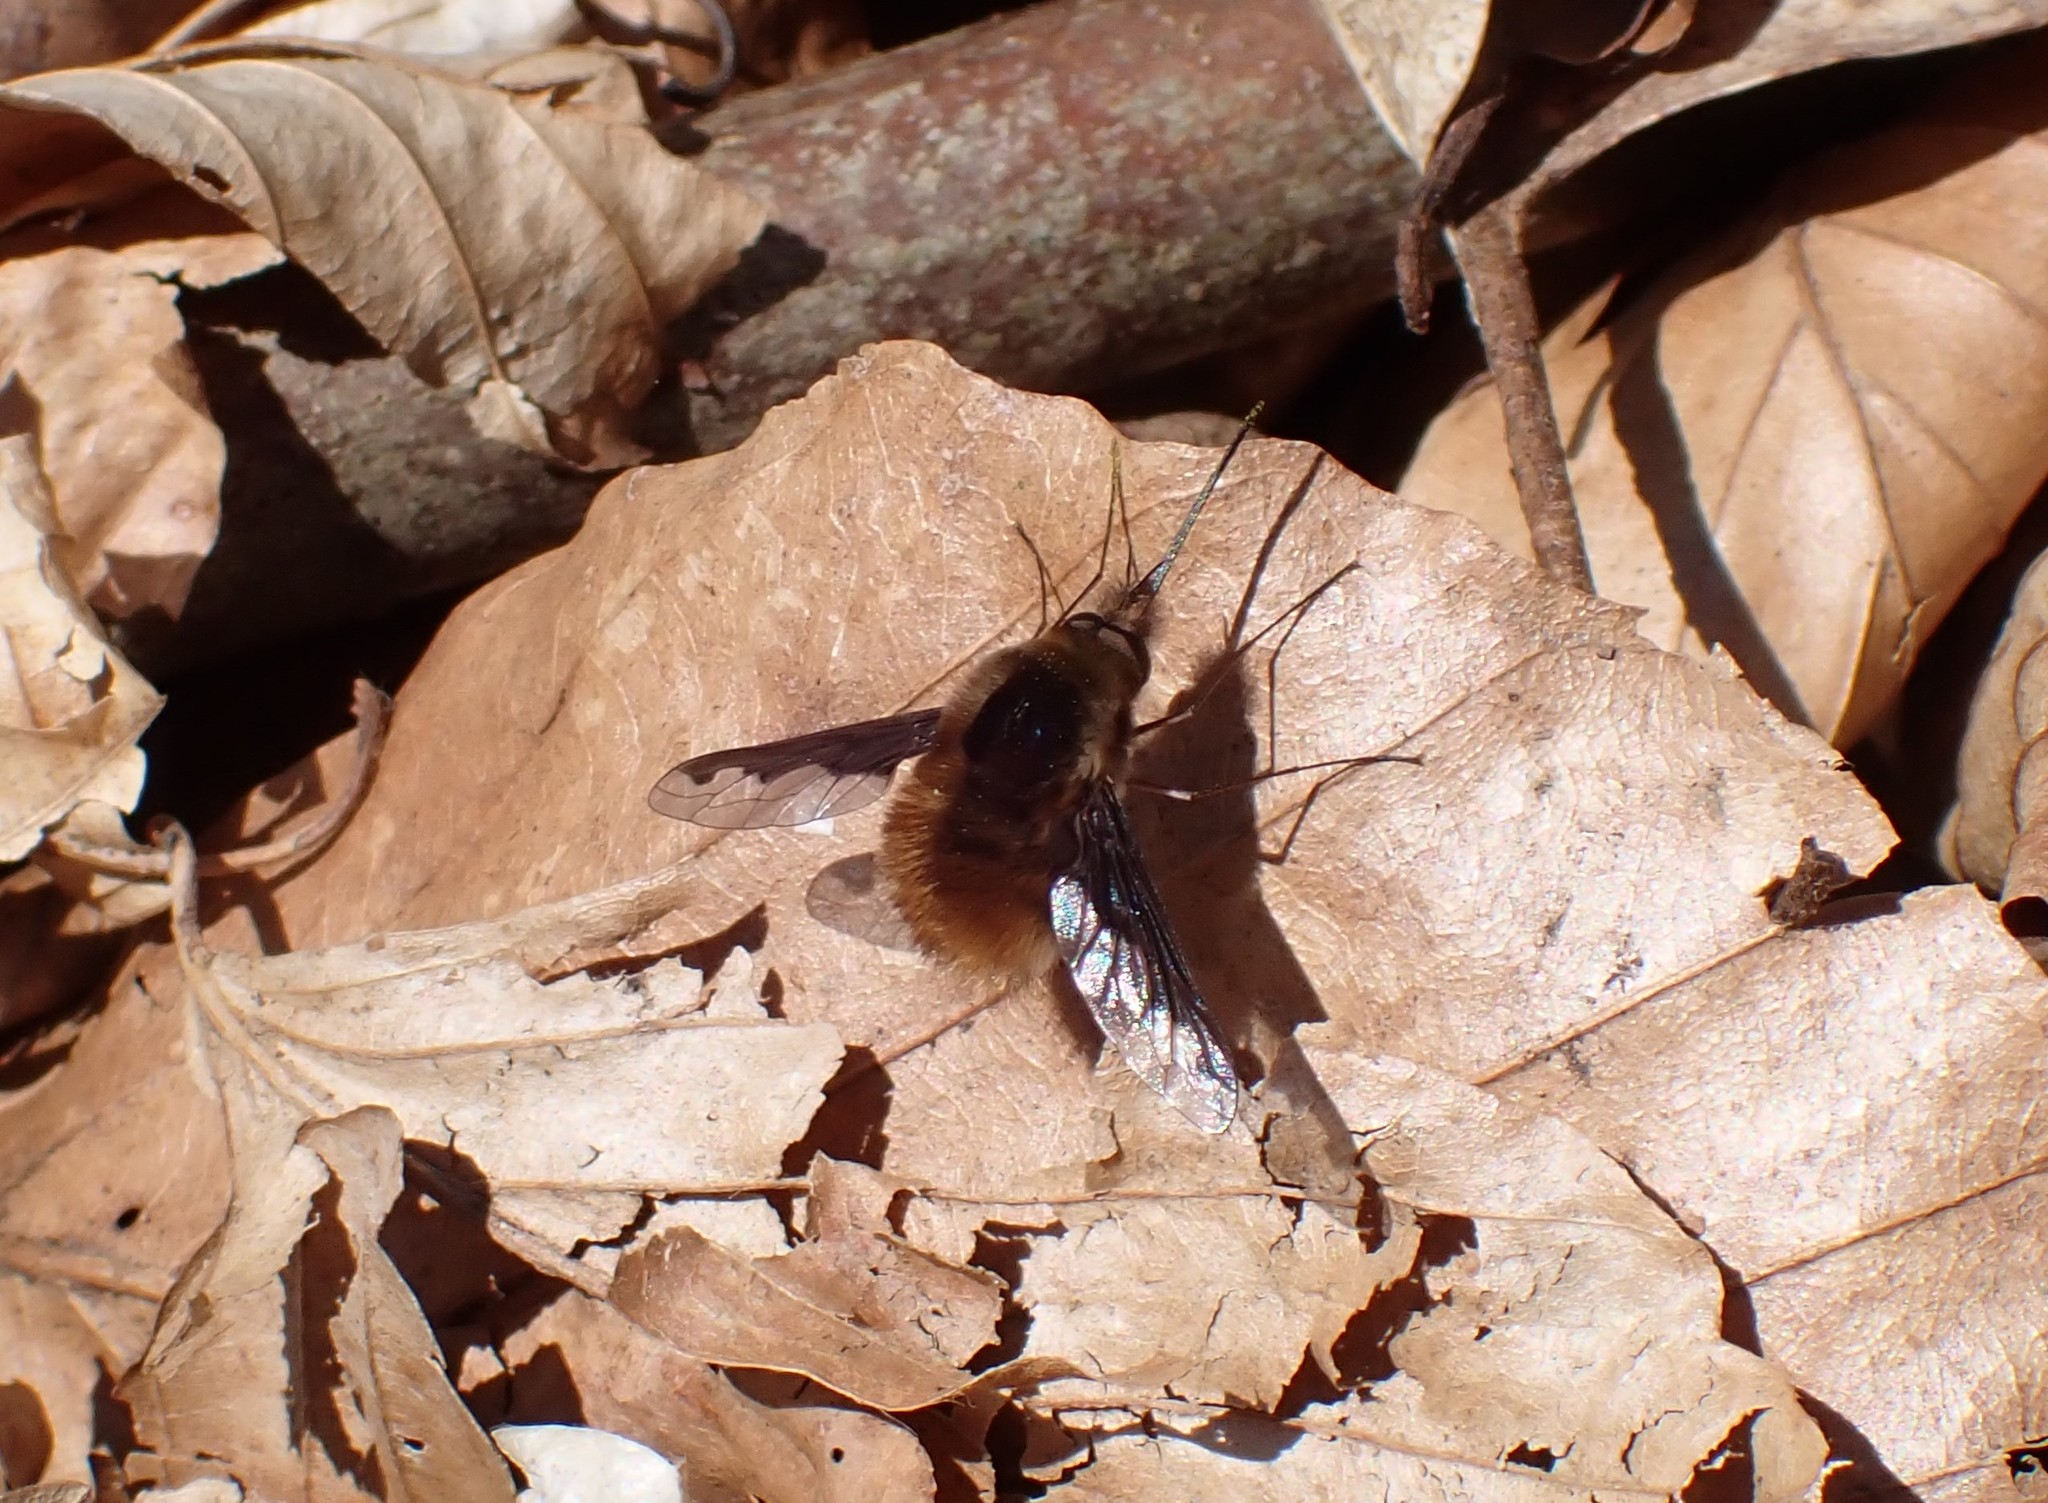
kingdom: Animalia
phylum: Arthropoda
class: Insecta
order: Diptera
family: Bombyliidae
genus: Bombylius
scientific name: Bombylius major
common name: Bee fly
